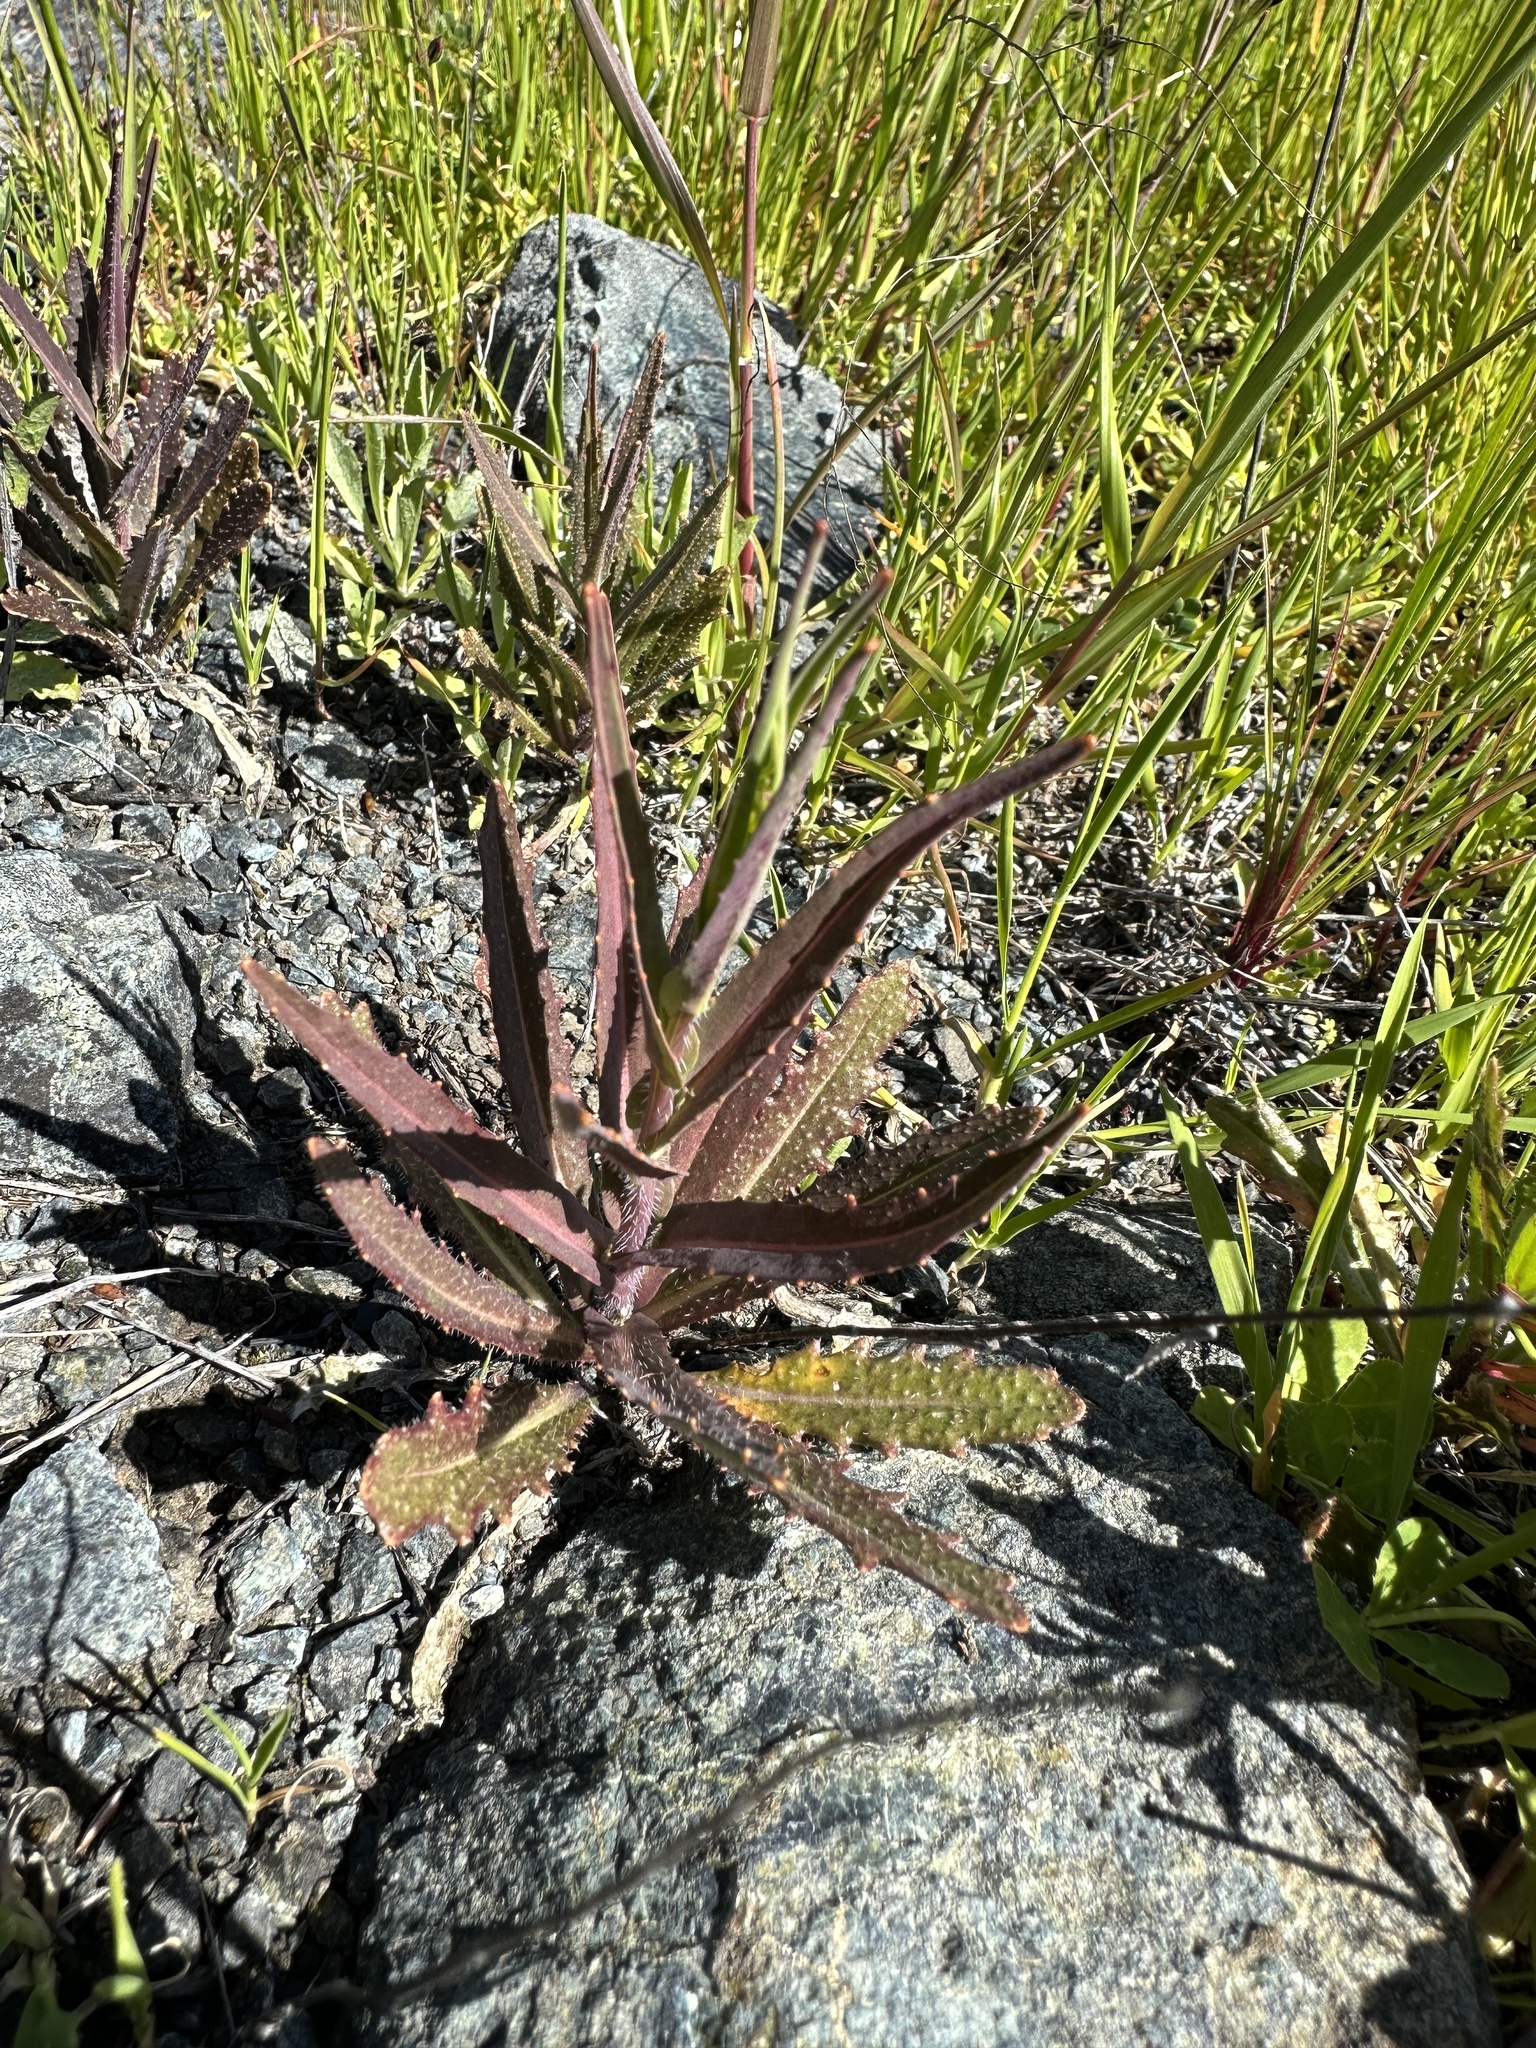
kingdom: Plantae
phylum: Tracheophyta
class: Magnoliopsida
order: Brassicales
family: Brassicaceae
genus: Streptanthus
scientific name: Streptanthus glandulosus
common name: Jewel-flower
